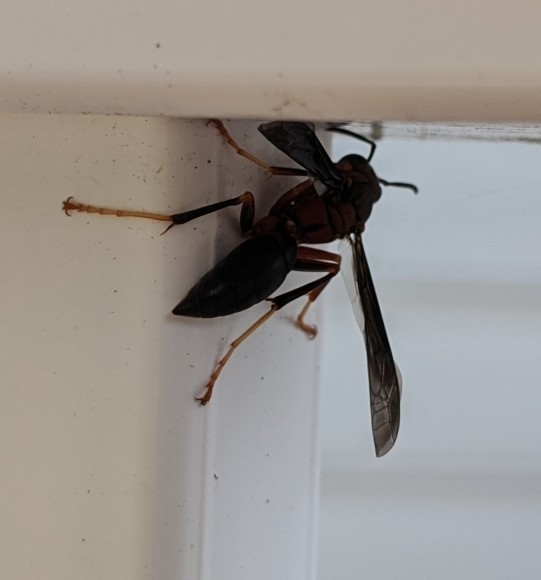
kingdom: Animalia
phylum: Arthropoda
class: Insecta
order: Hymenoptera
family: Vespidae
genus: Fuscopolistes
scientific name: Fuscopolistes
